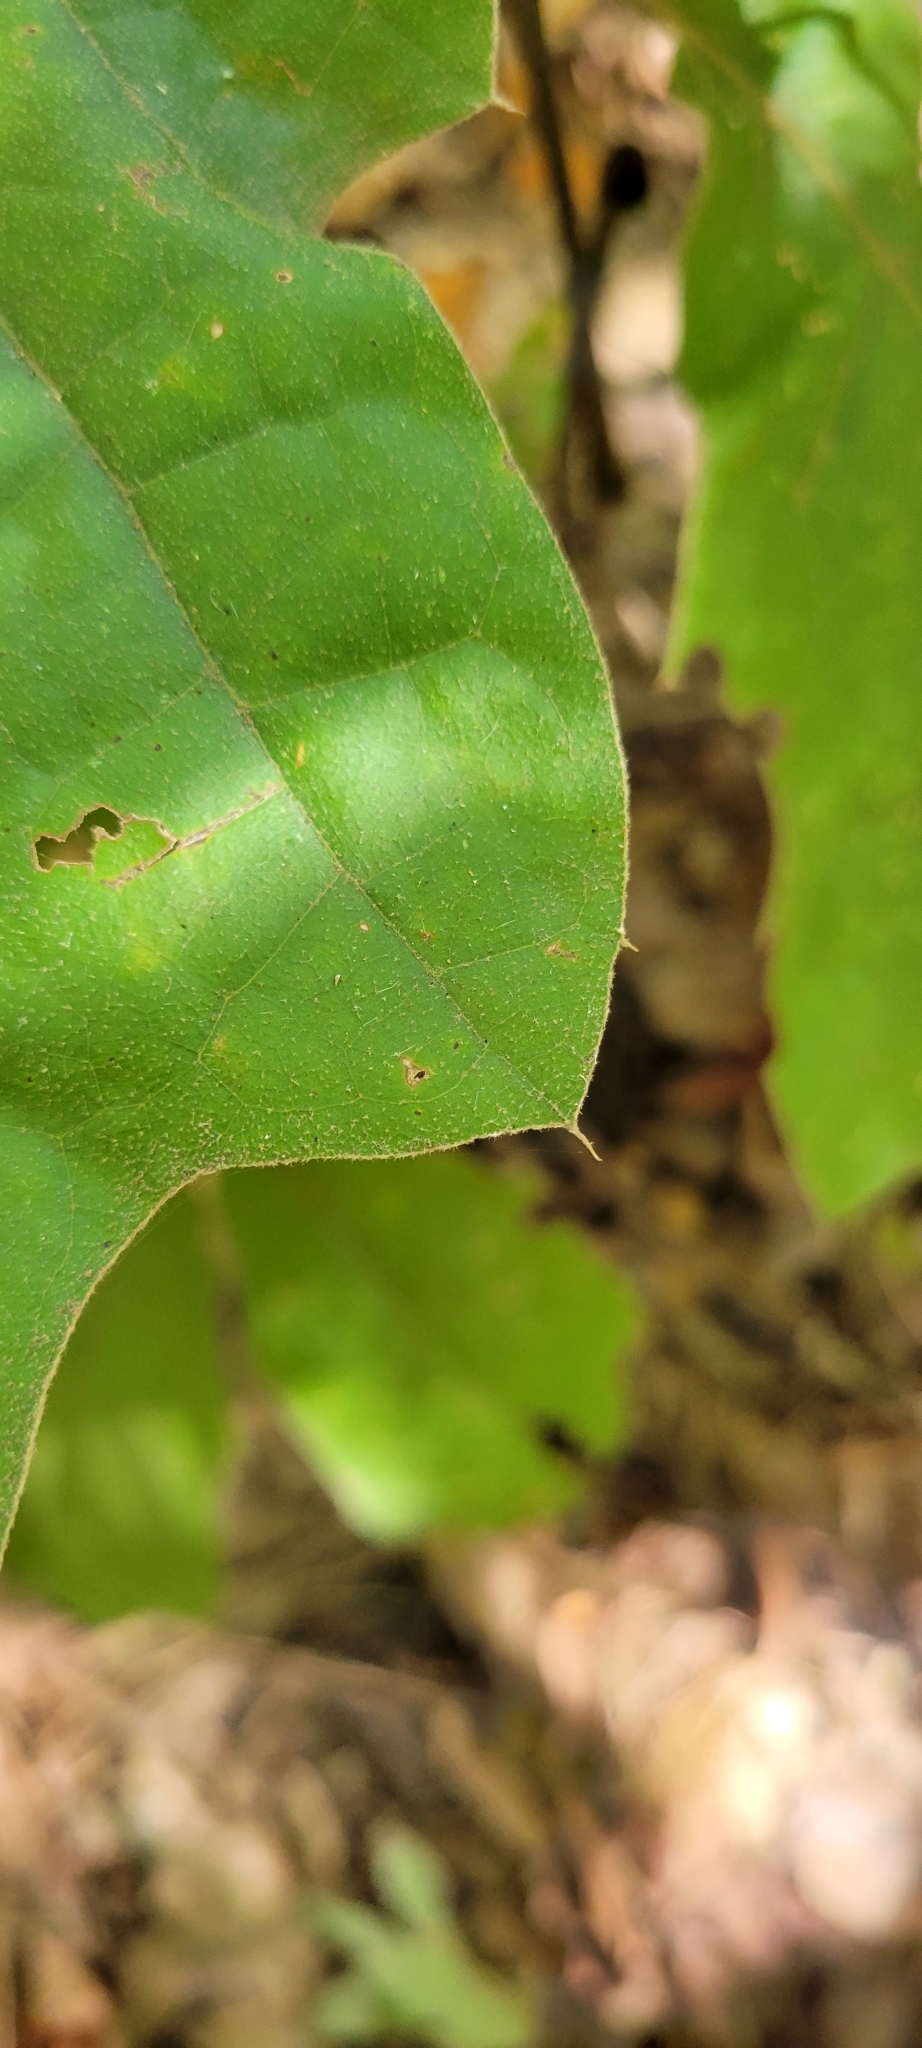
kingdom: Plantae
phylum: Tracheophyta
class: Magnoliopsida
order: Fagales
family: Fagaceae
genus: Quercus
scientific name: Quercus velutina
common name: Black oak
